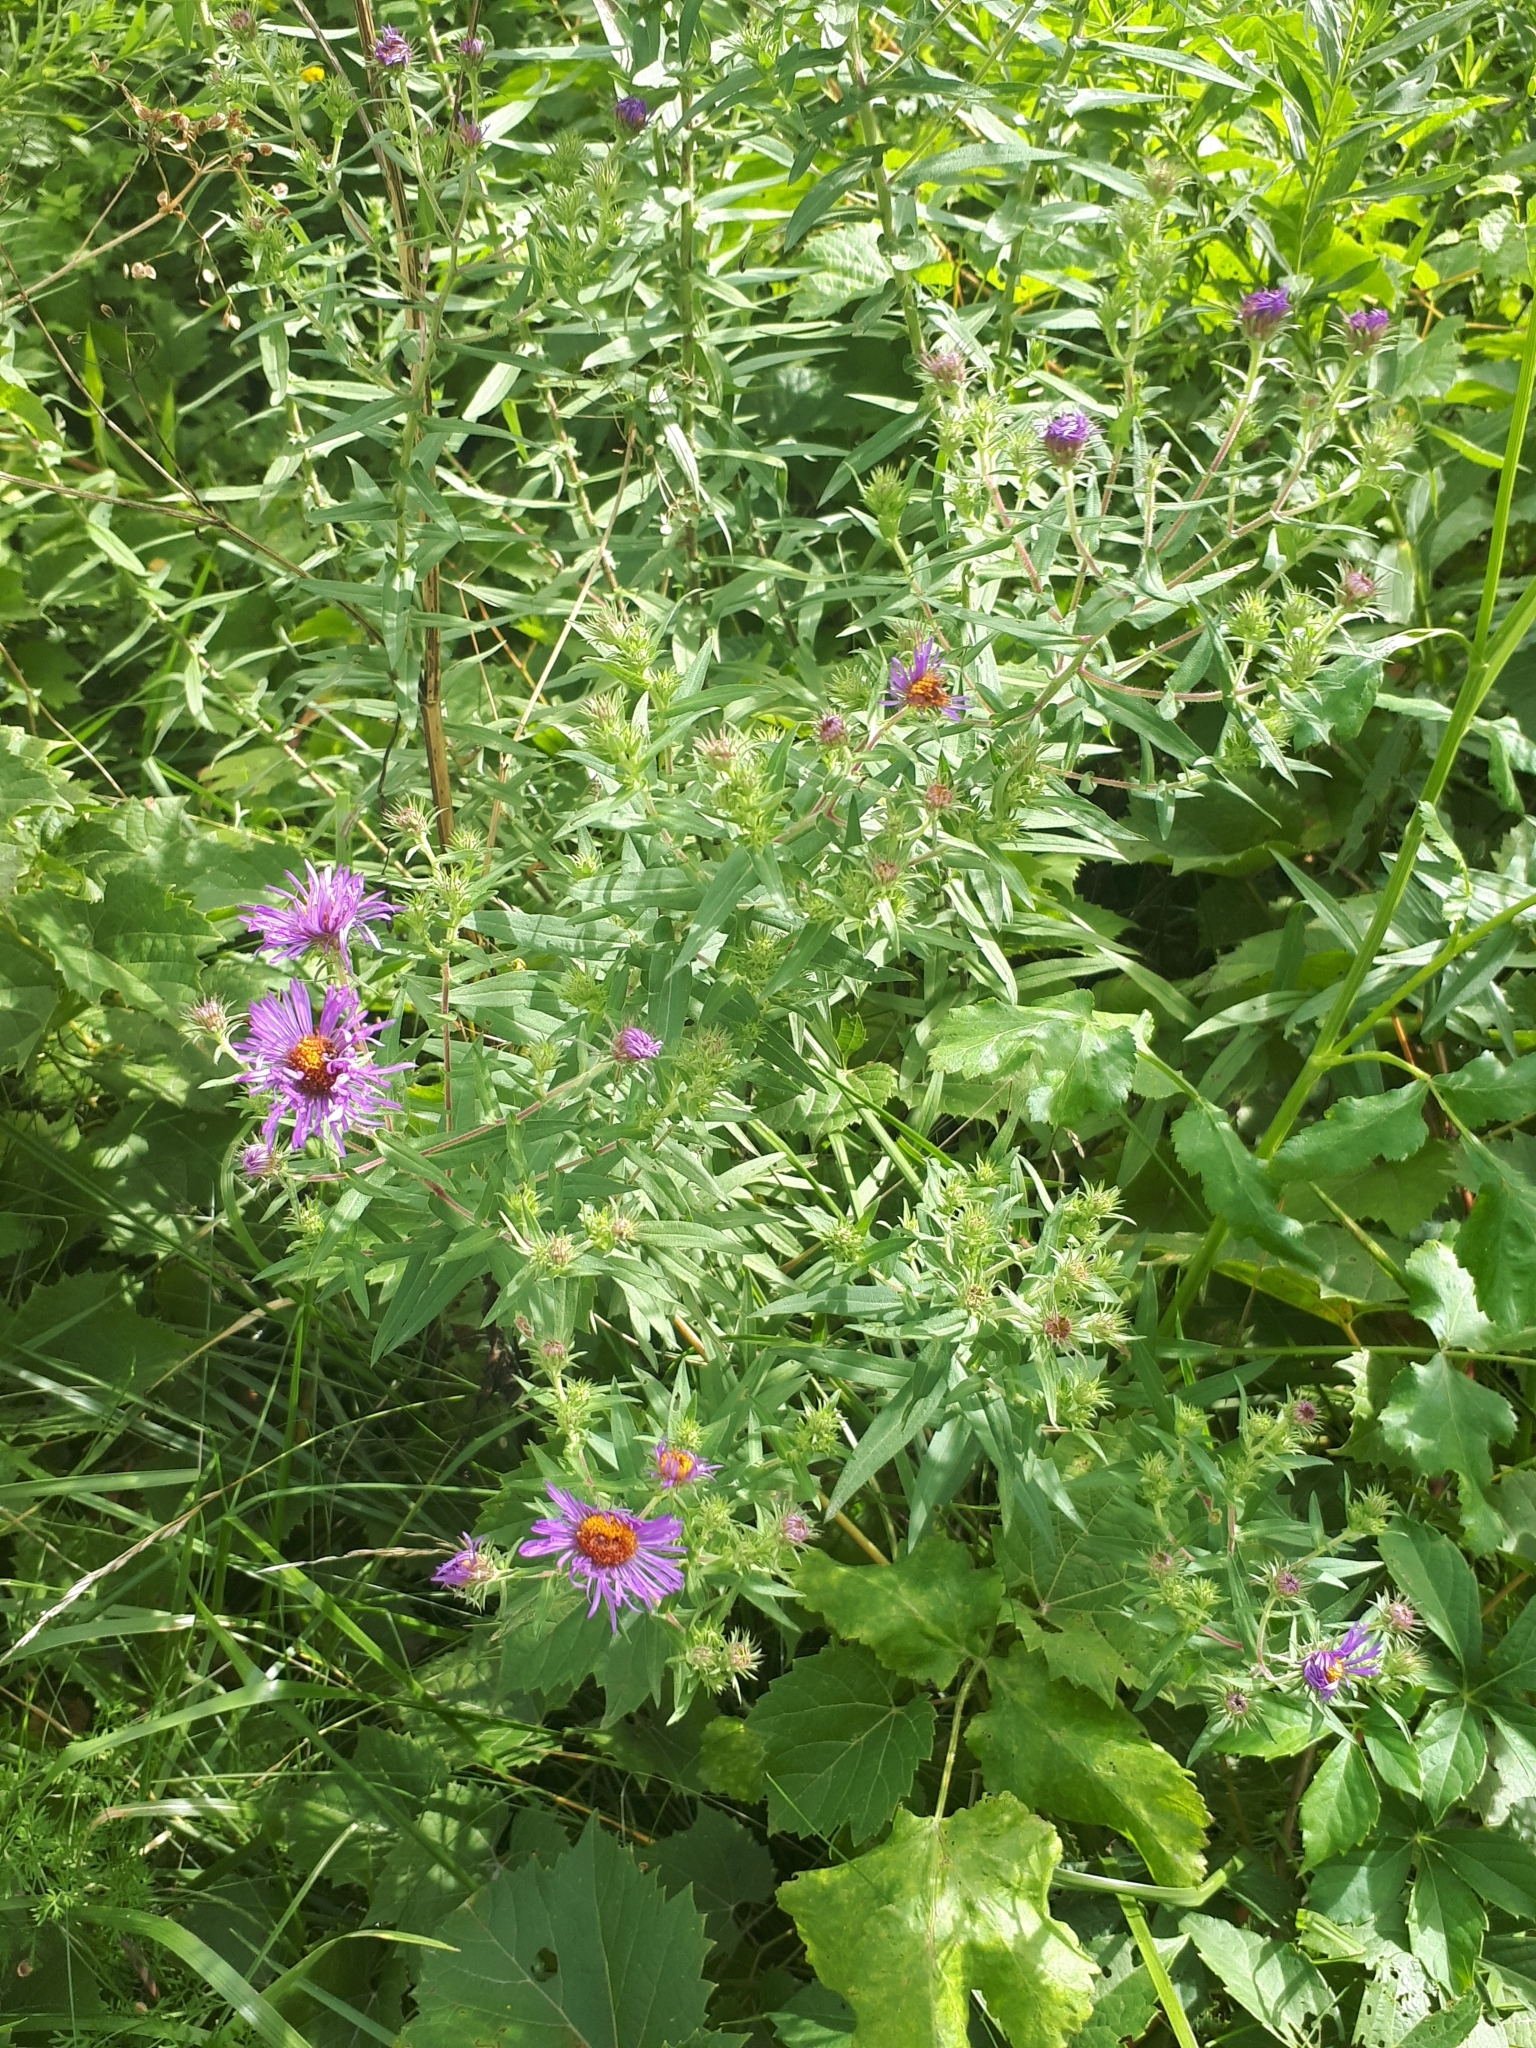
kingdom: Plantae
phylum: Tracheophyta
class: Magnoliopsida
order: Asterales
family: Asteraceae
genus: Symphyotrichum
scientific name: Symphyotrichum novae-angliae
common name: Michaelmas daisy
